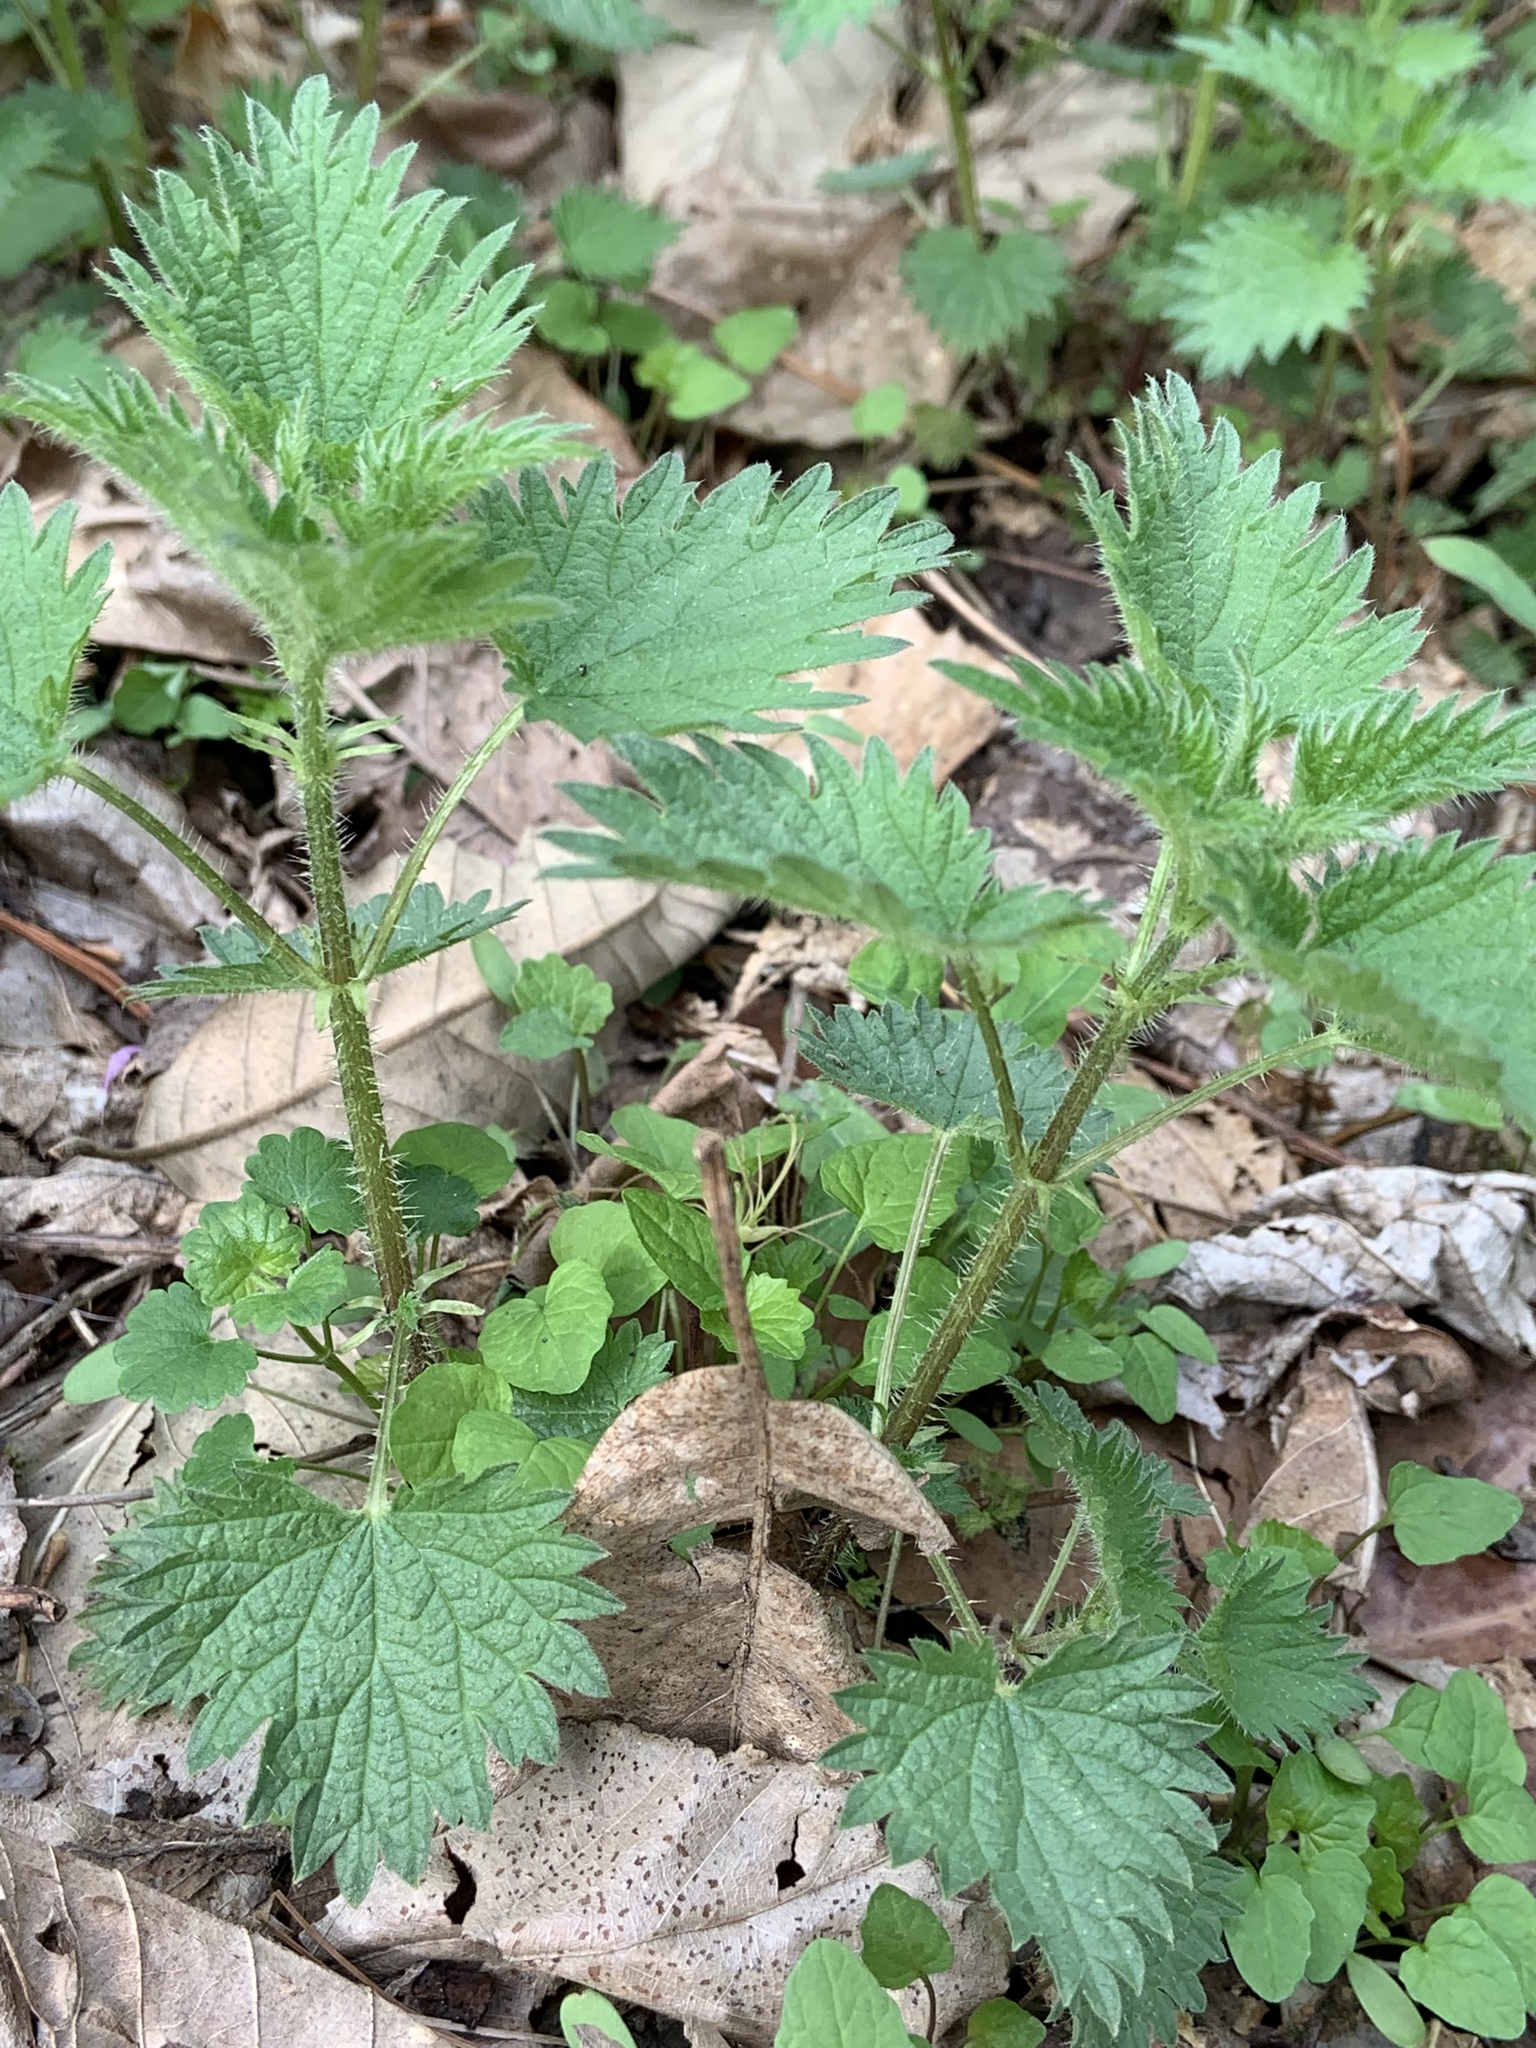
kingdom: Plantae
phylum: Tracheophyta
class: Magnoliopsida
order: Rosales
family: Urticaceae
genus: Urtica
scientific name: Urtica dioica
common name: Common nettle
